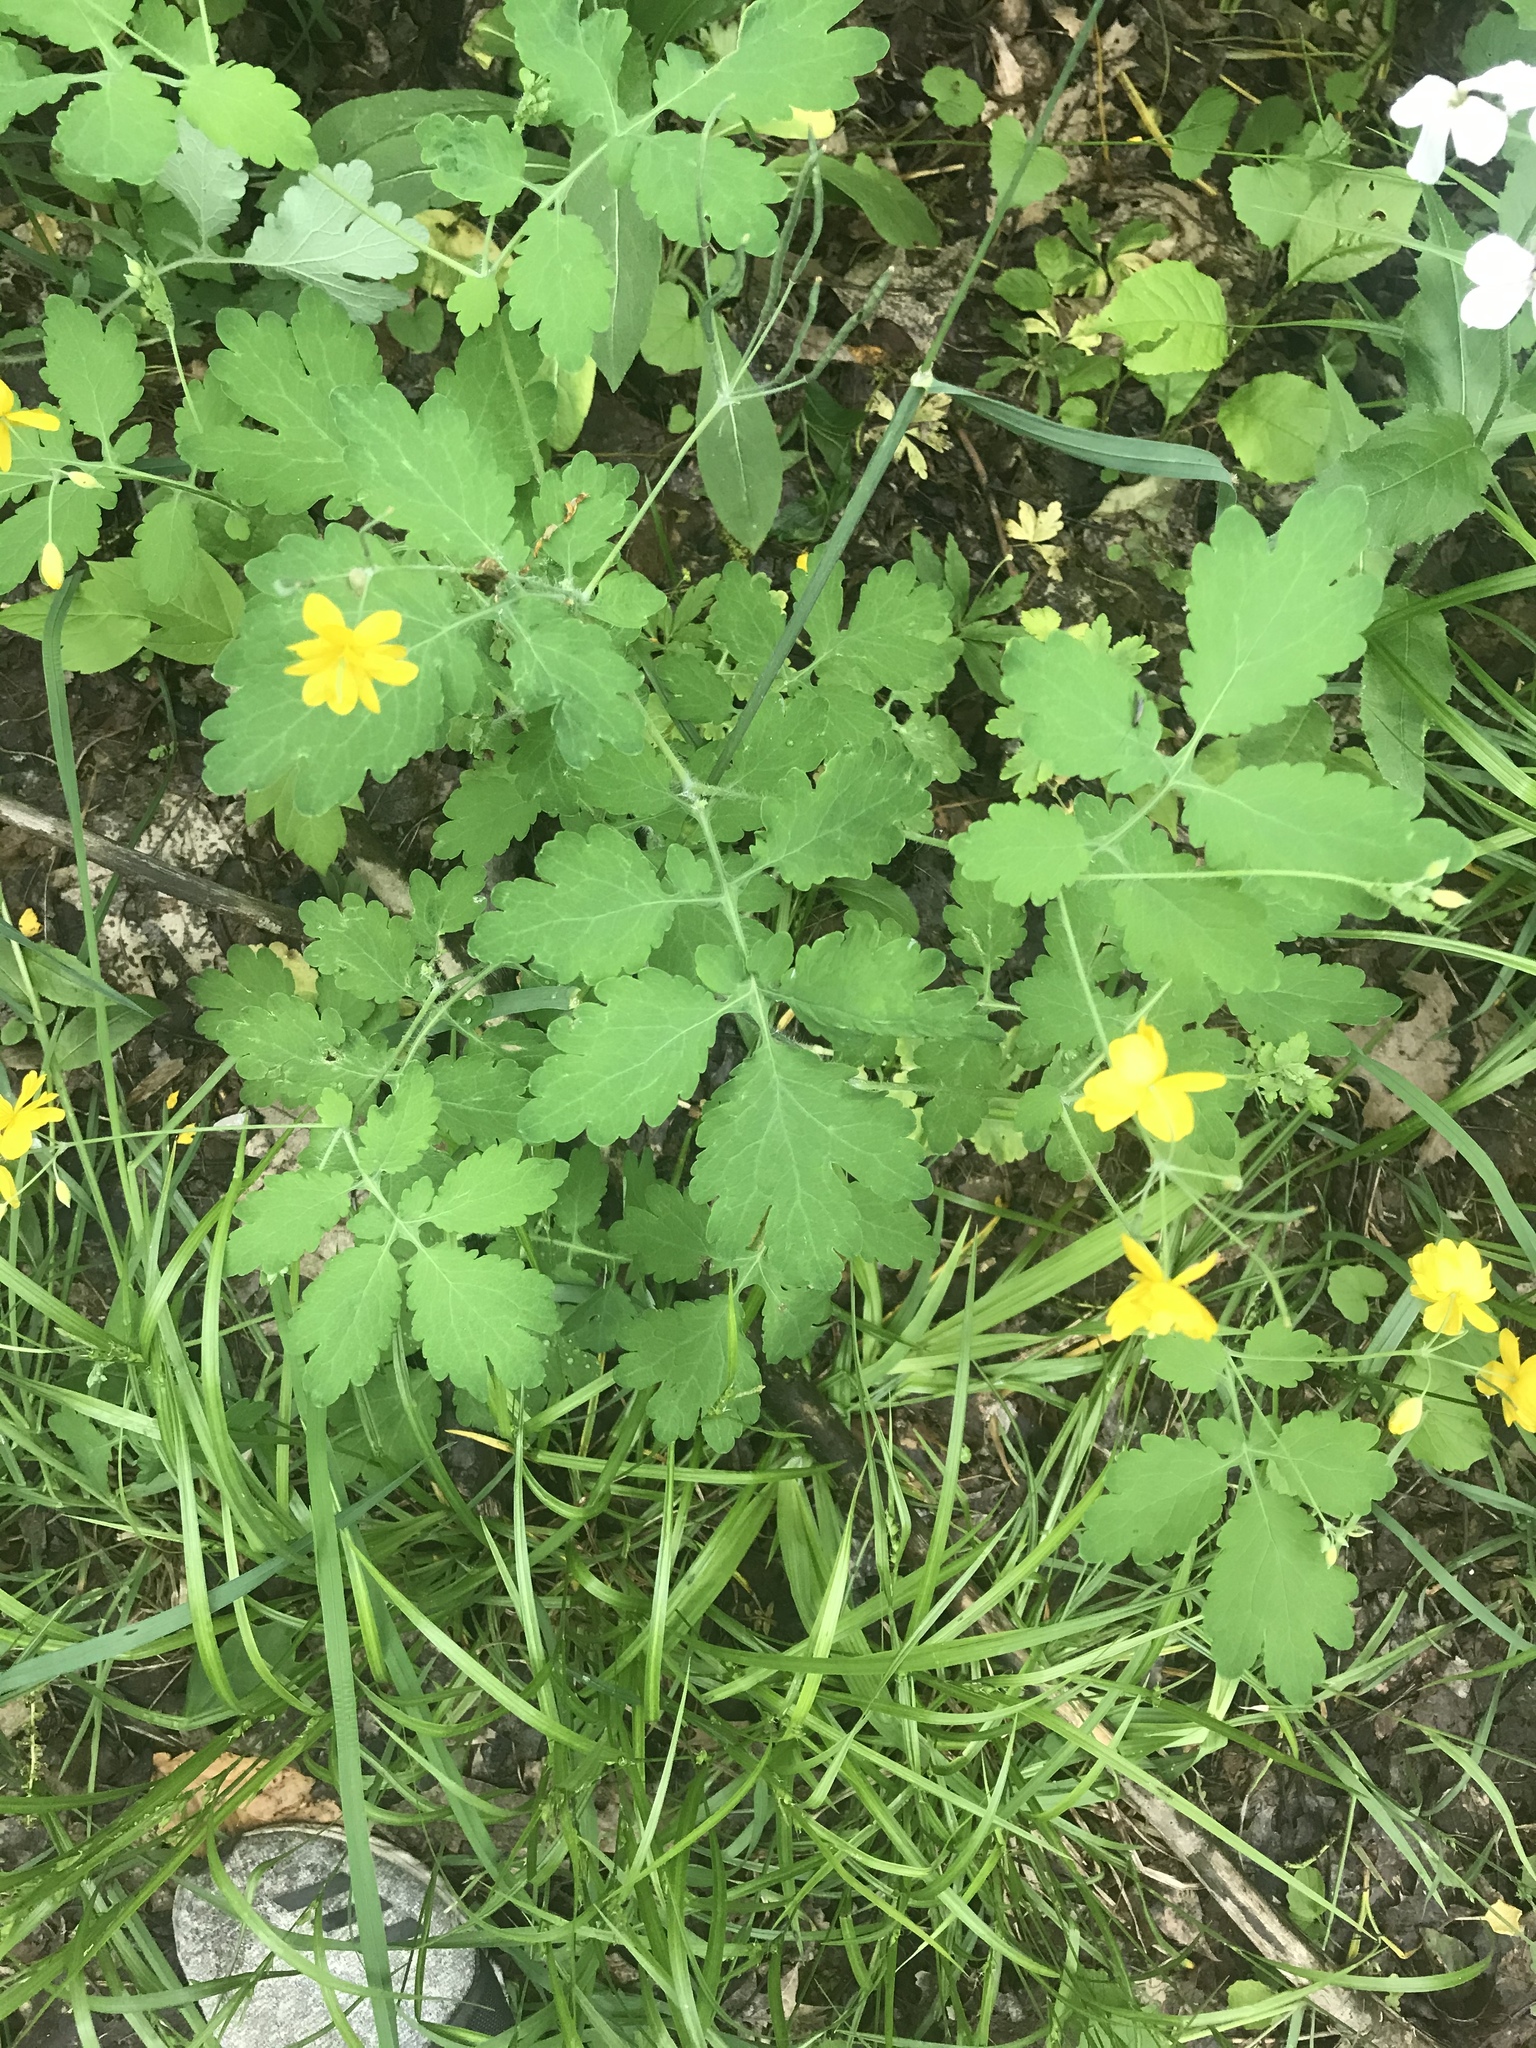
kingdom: Plantae
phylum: Tracheophyta
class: Magnoliopsida
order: Ranunculales
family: Papaveraceae
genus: Chelidonium
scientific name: Chelidonium majus
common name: Greater celandine
